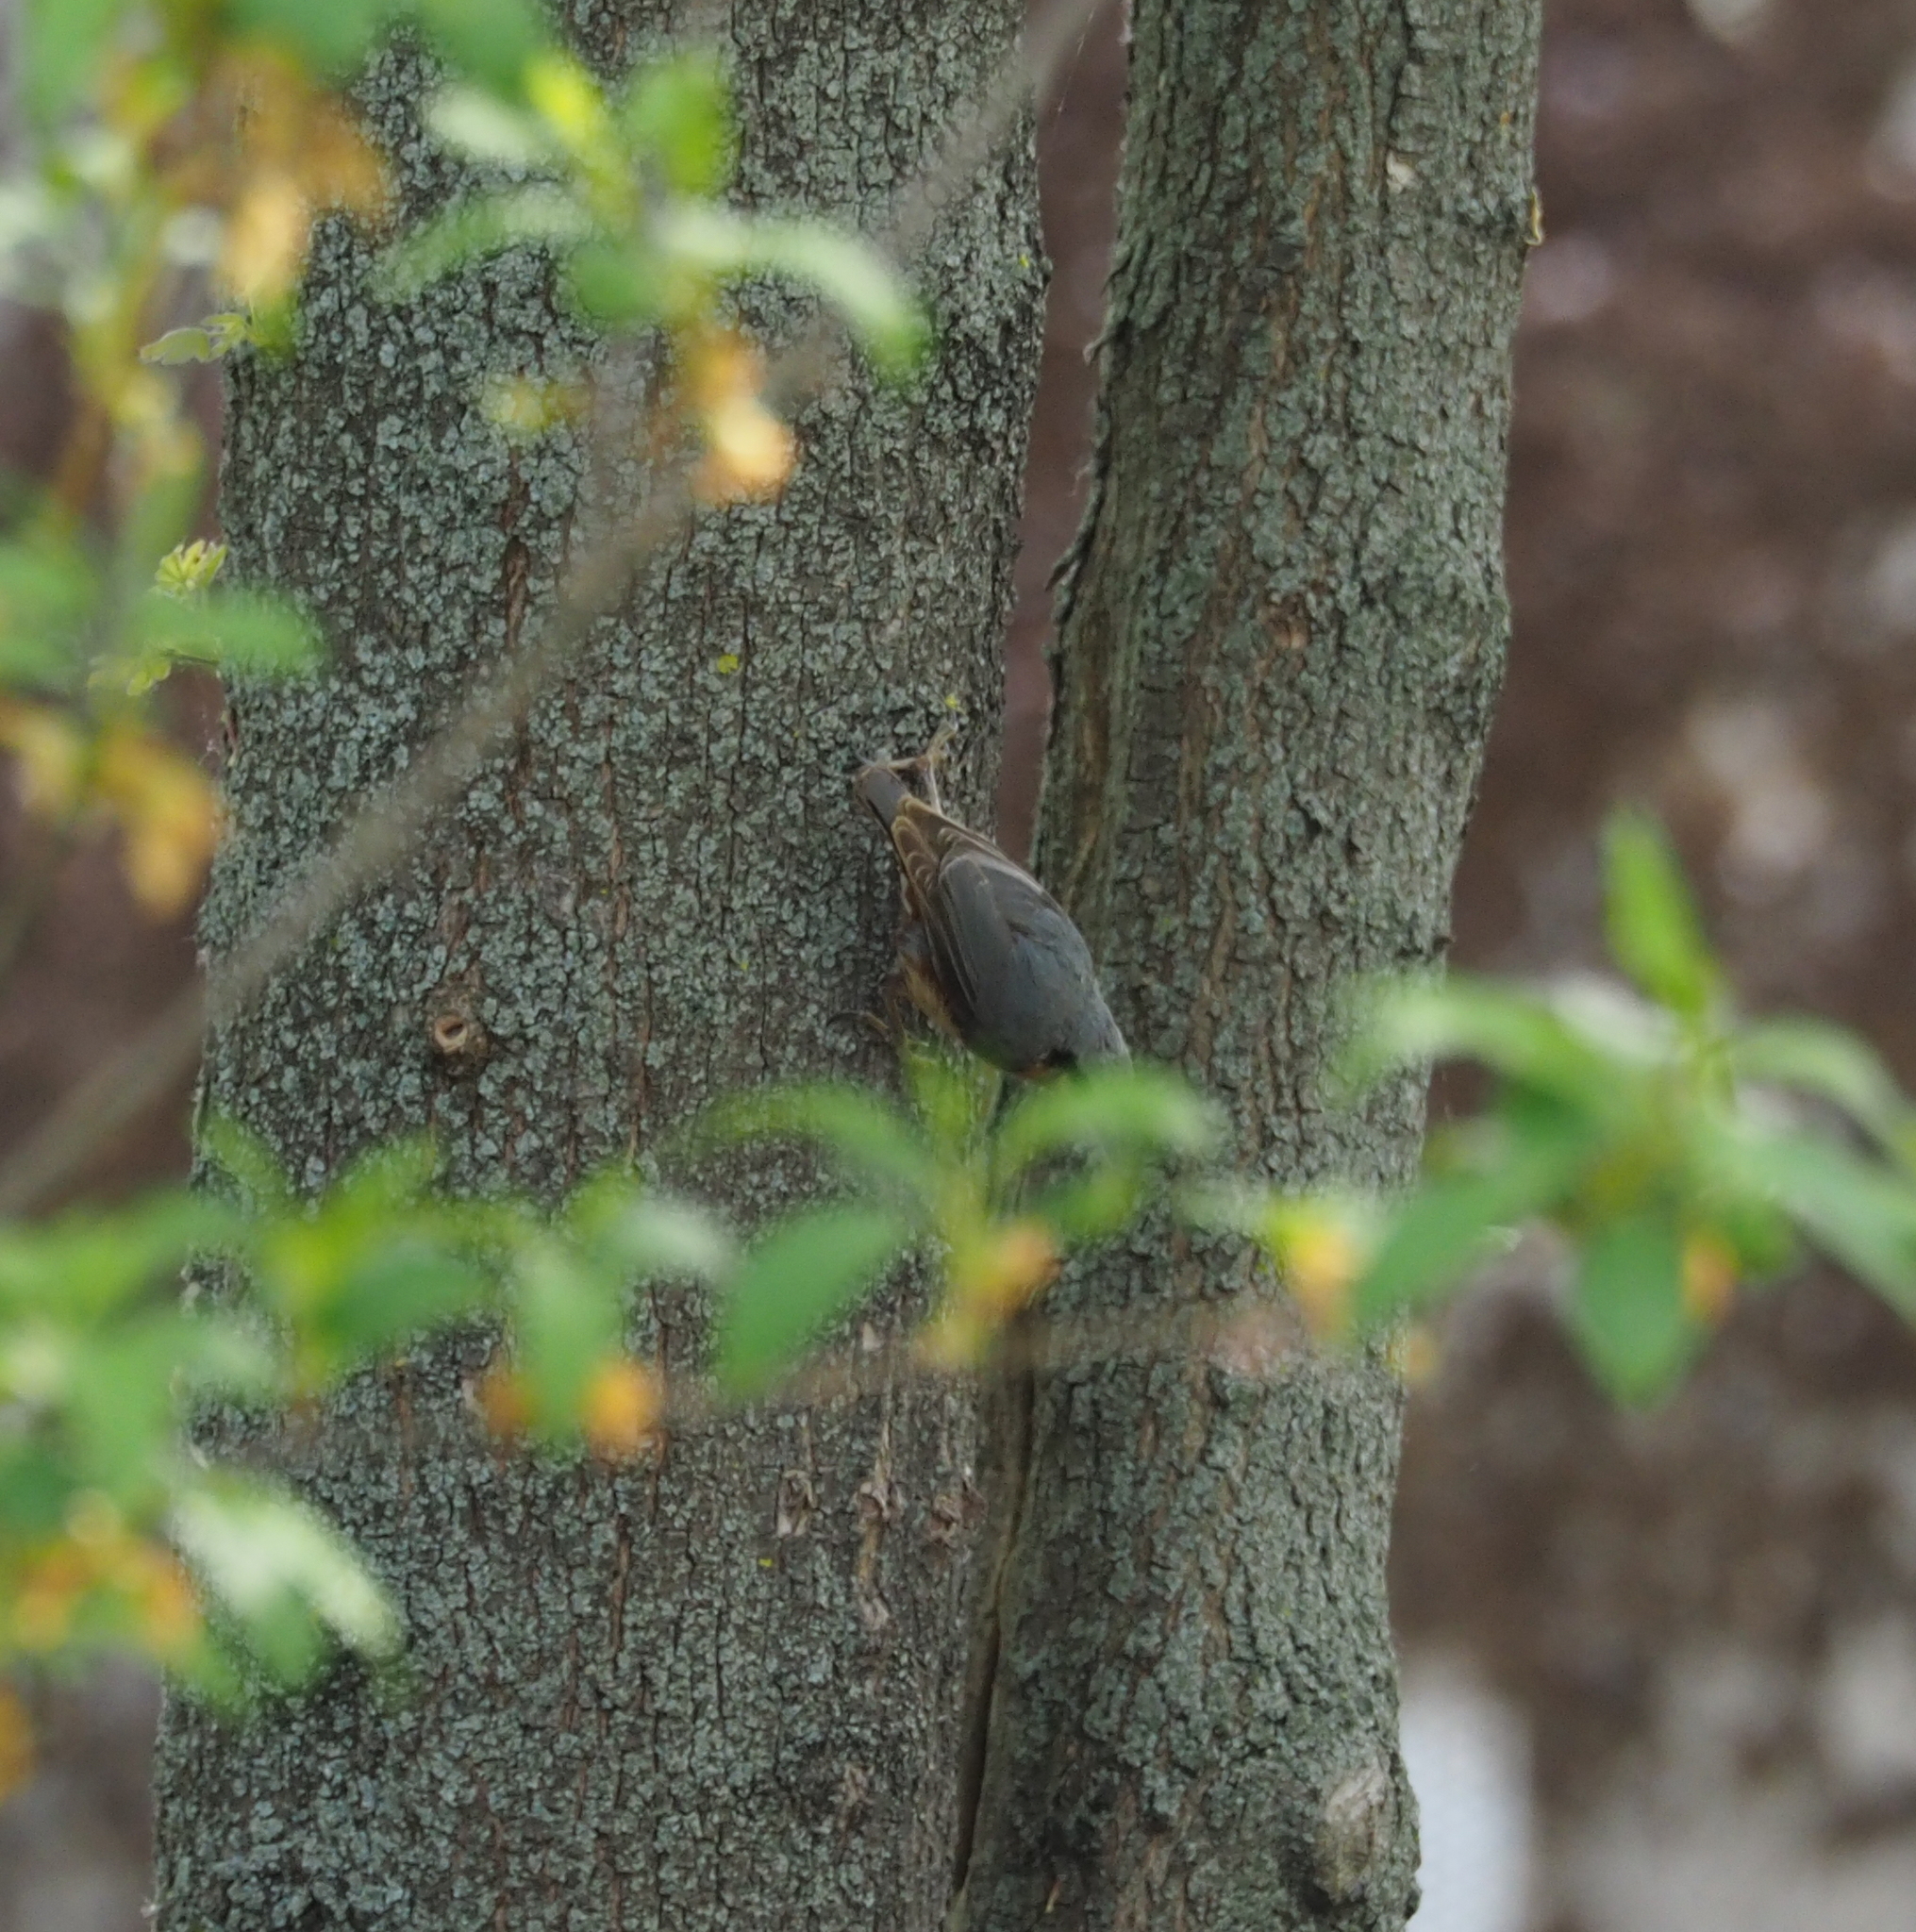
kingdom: Animalia
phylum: Chordata
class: Aves
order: Passeriformes
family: Sittidae
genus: Sitta
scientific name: Sitta europaea
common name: Eurasian nuthatch
